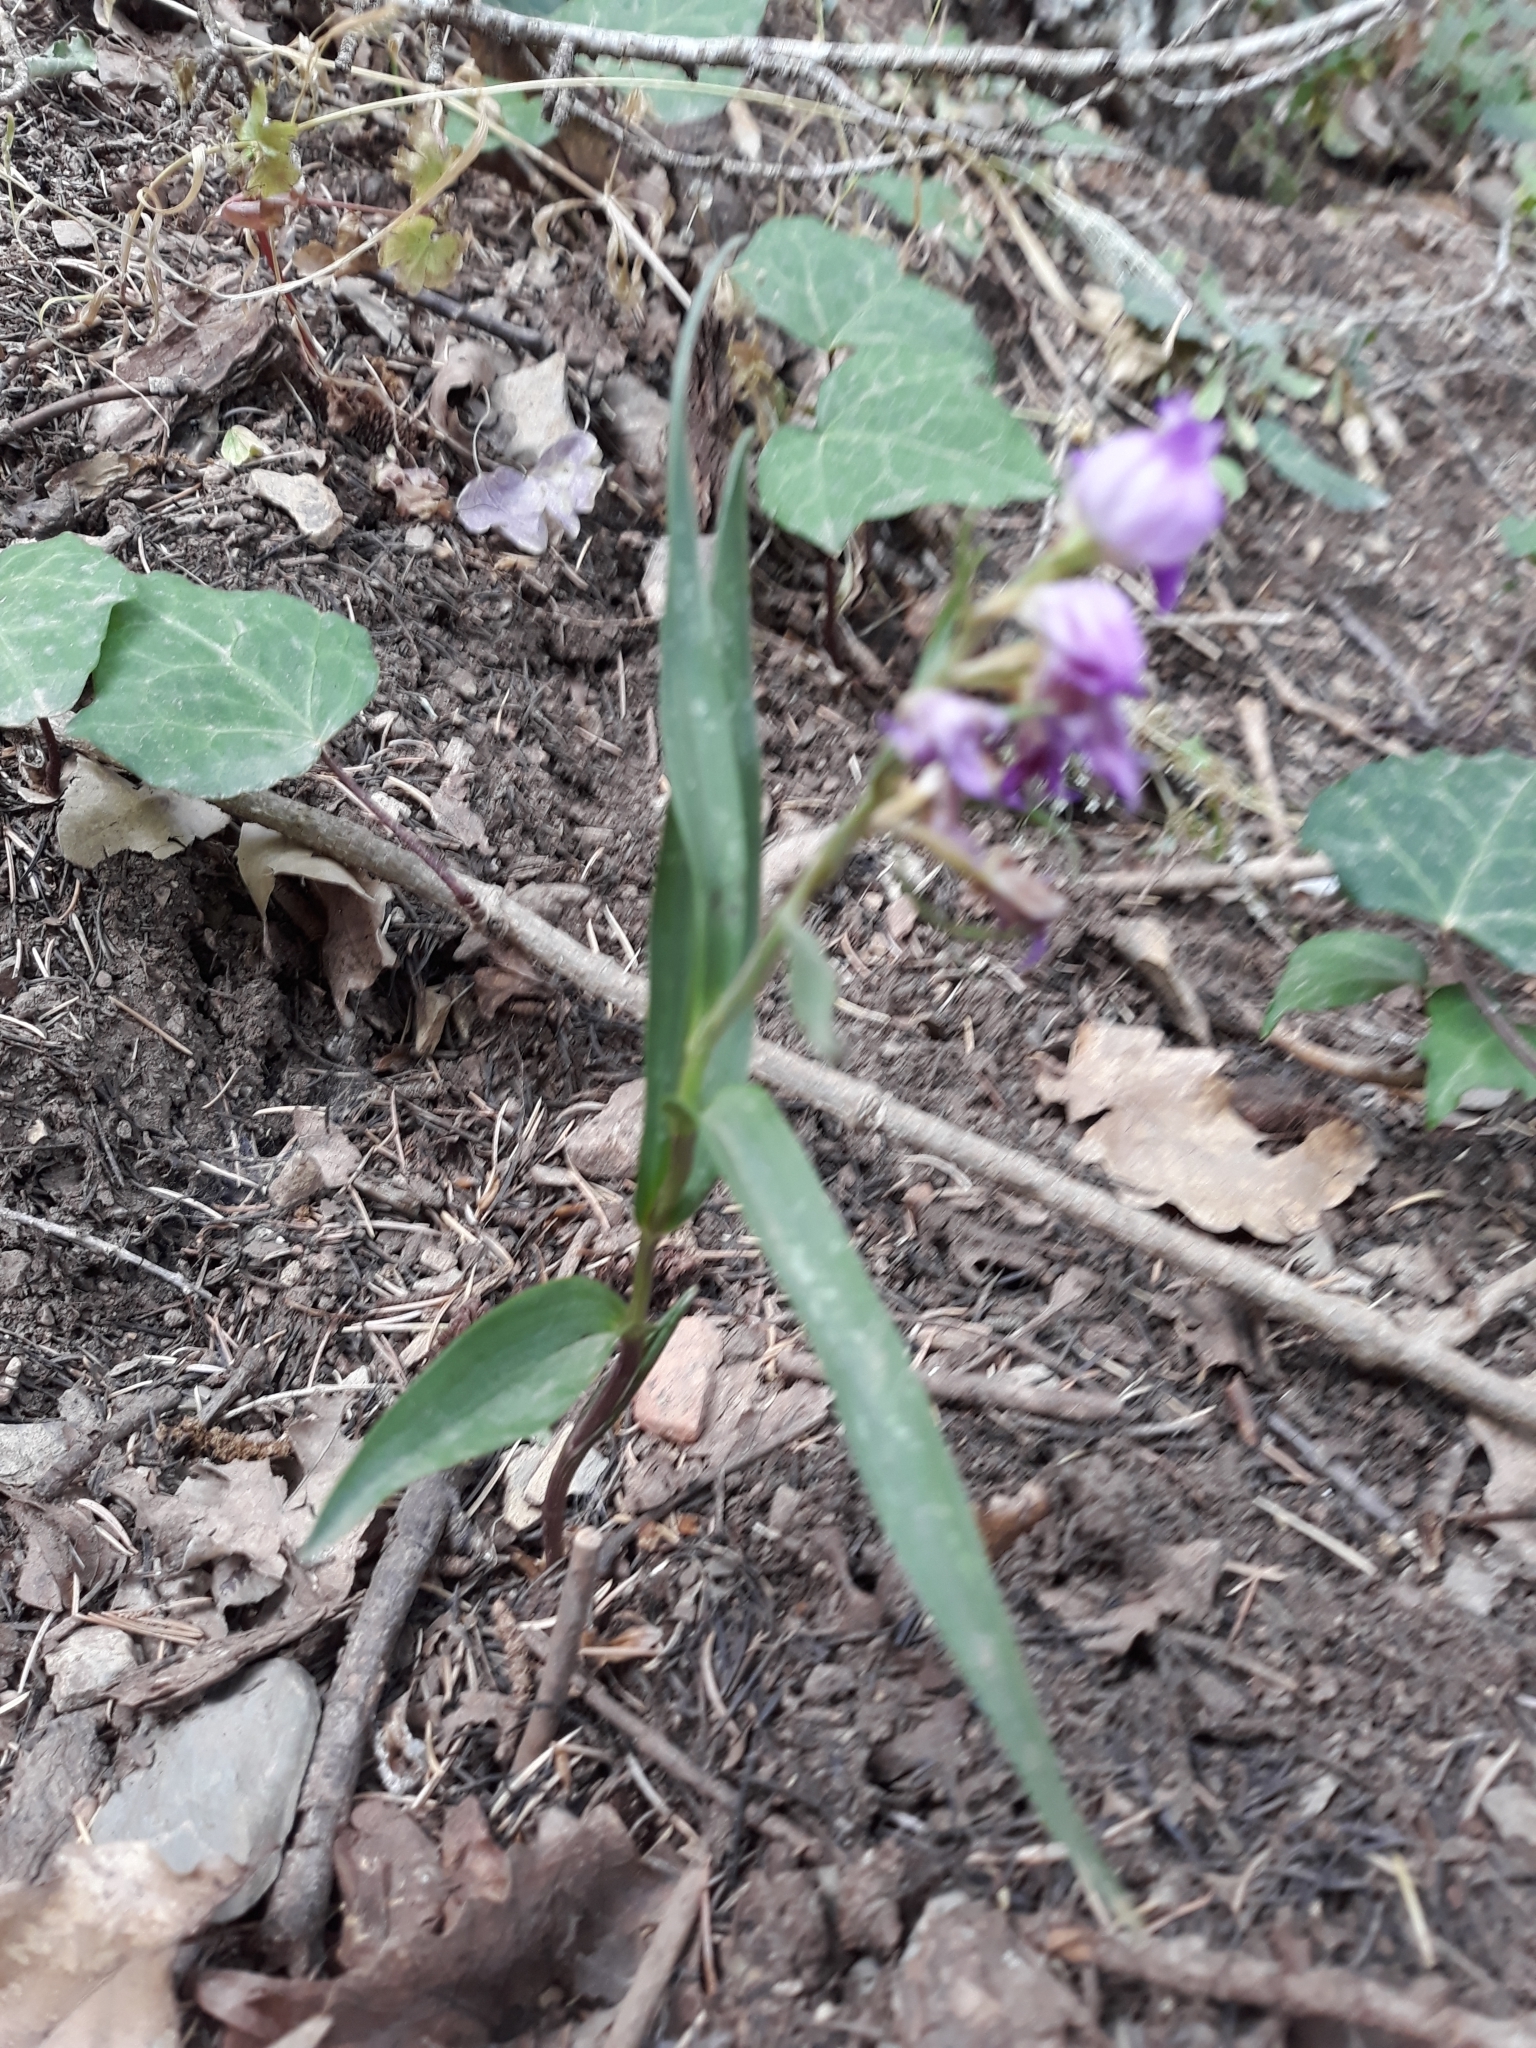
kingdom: Plantae
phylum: Tracheophyta
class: Liliopsida
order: Asparagales
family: Orchidaceae
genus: Cephalanthera
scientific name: Cephalanthera rubra
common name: Red helleborine
